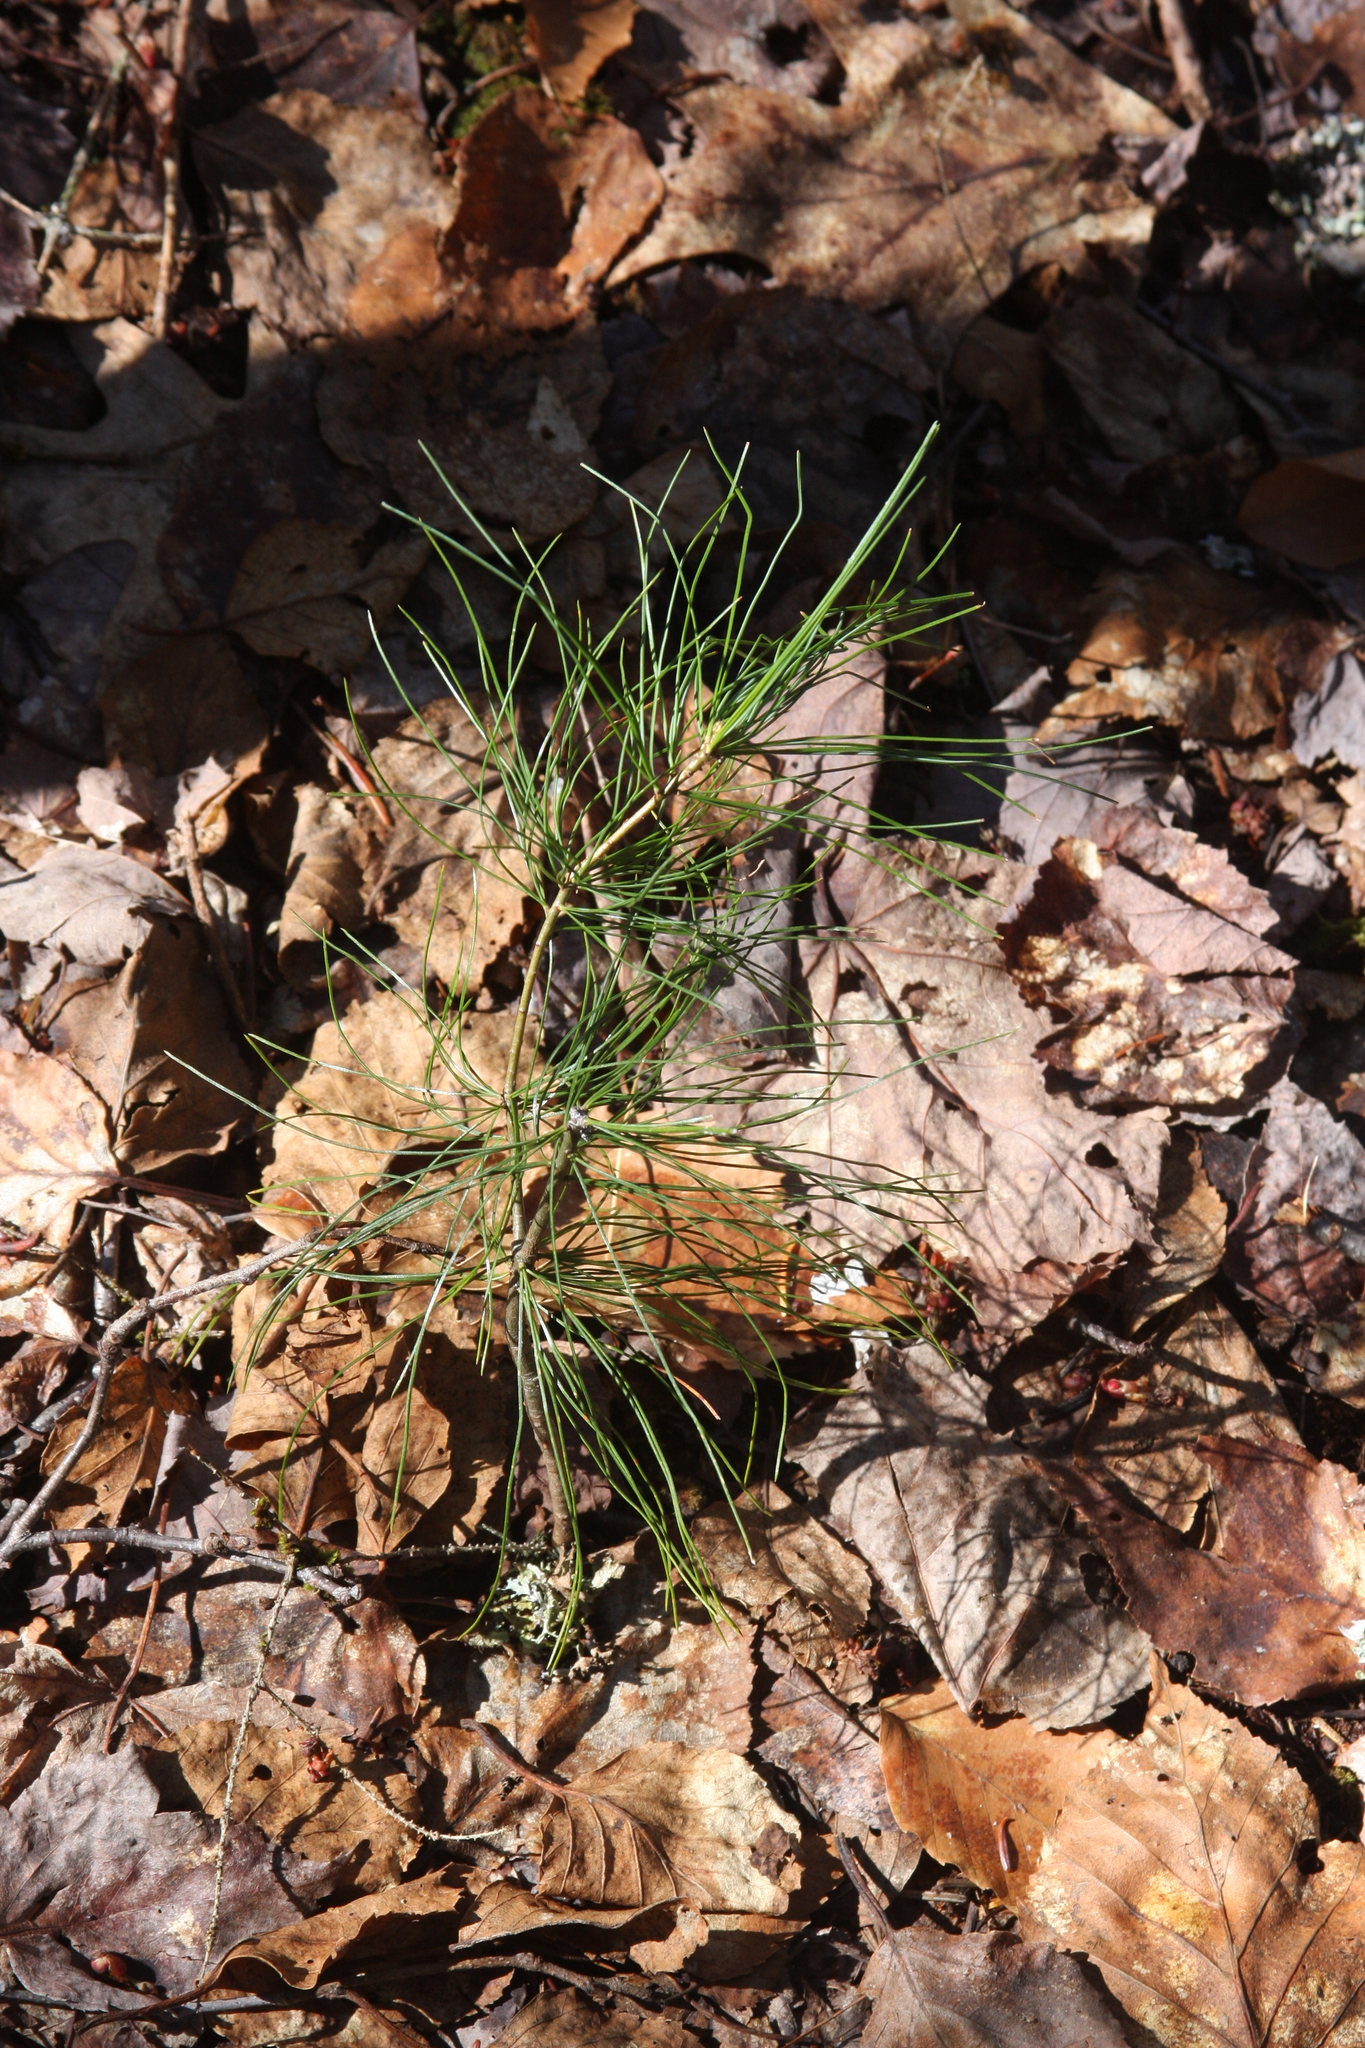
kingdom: Plantae
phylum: Tracheophyta
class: Pinopsida
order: Pinales
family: Pinaceae
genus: Pinus
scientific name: Pinus strobus
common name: Weymouth pine
